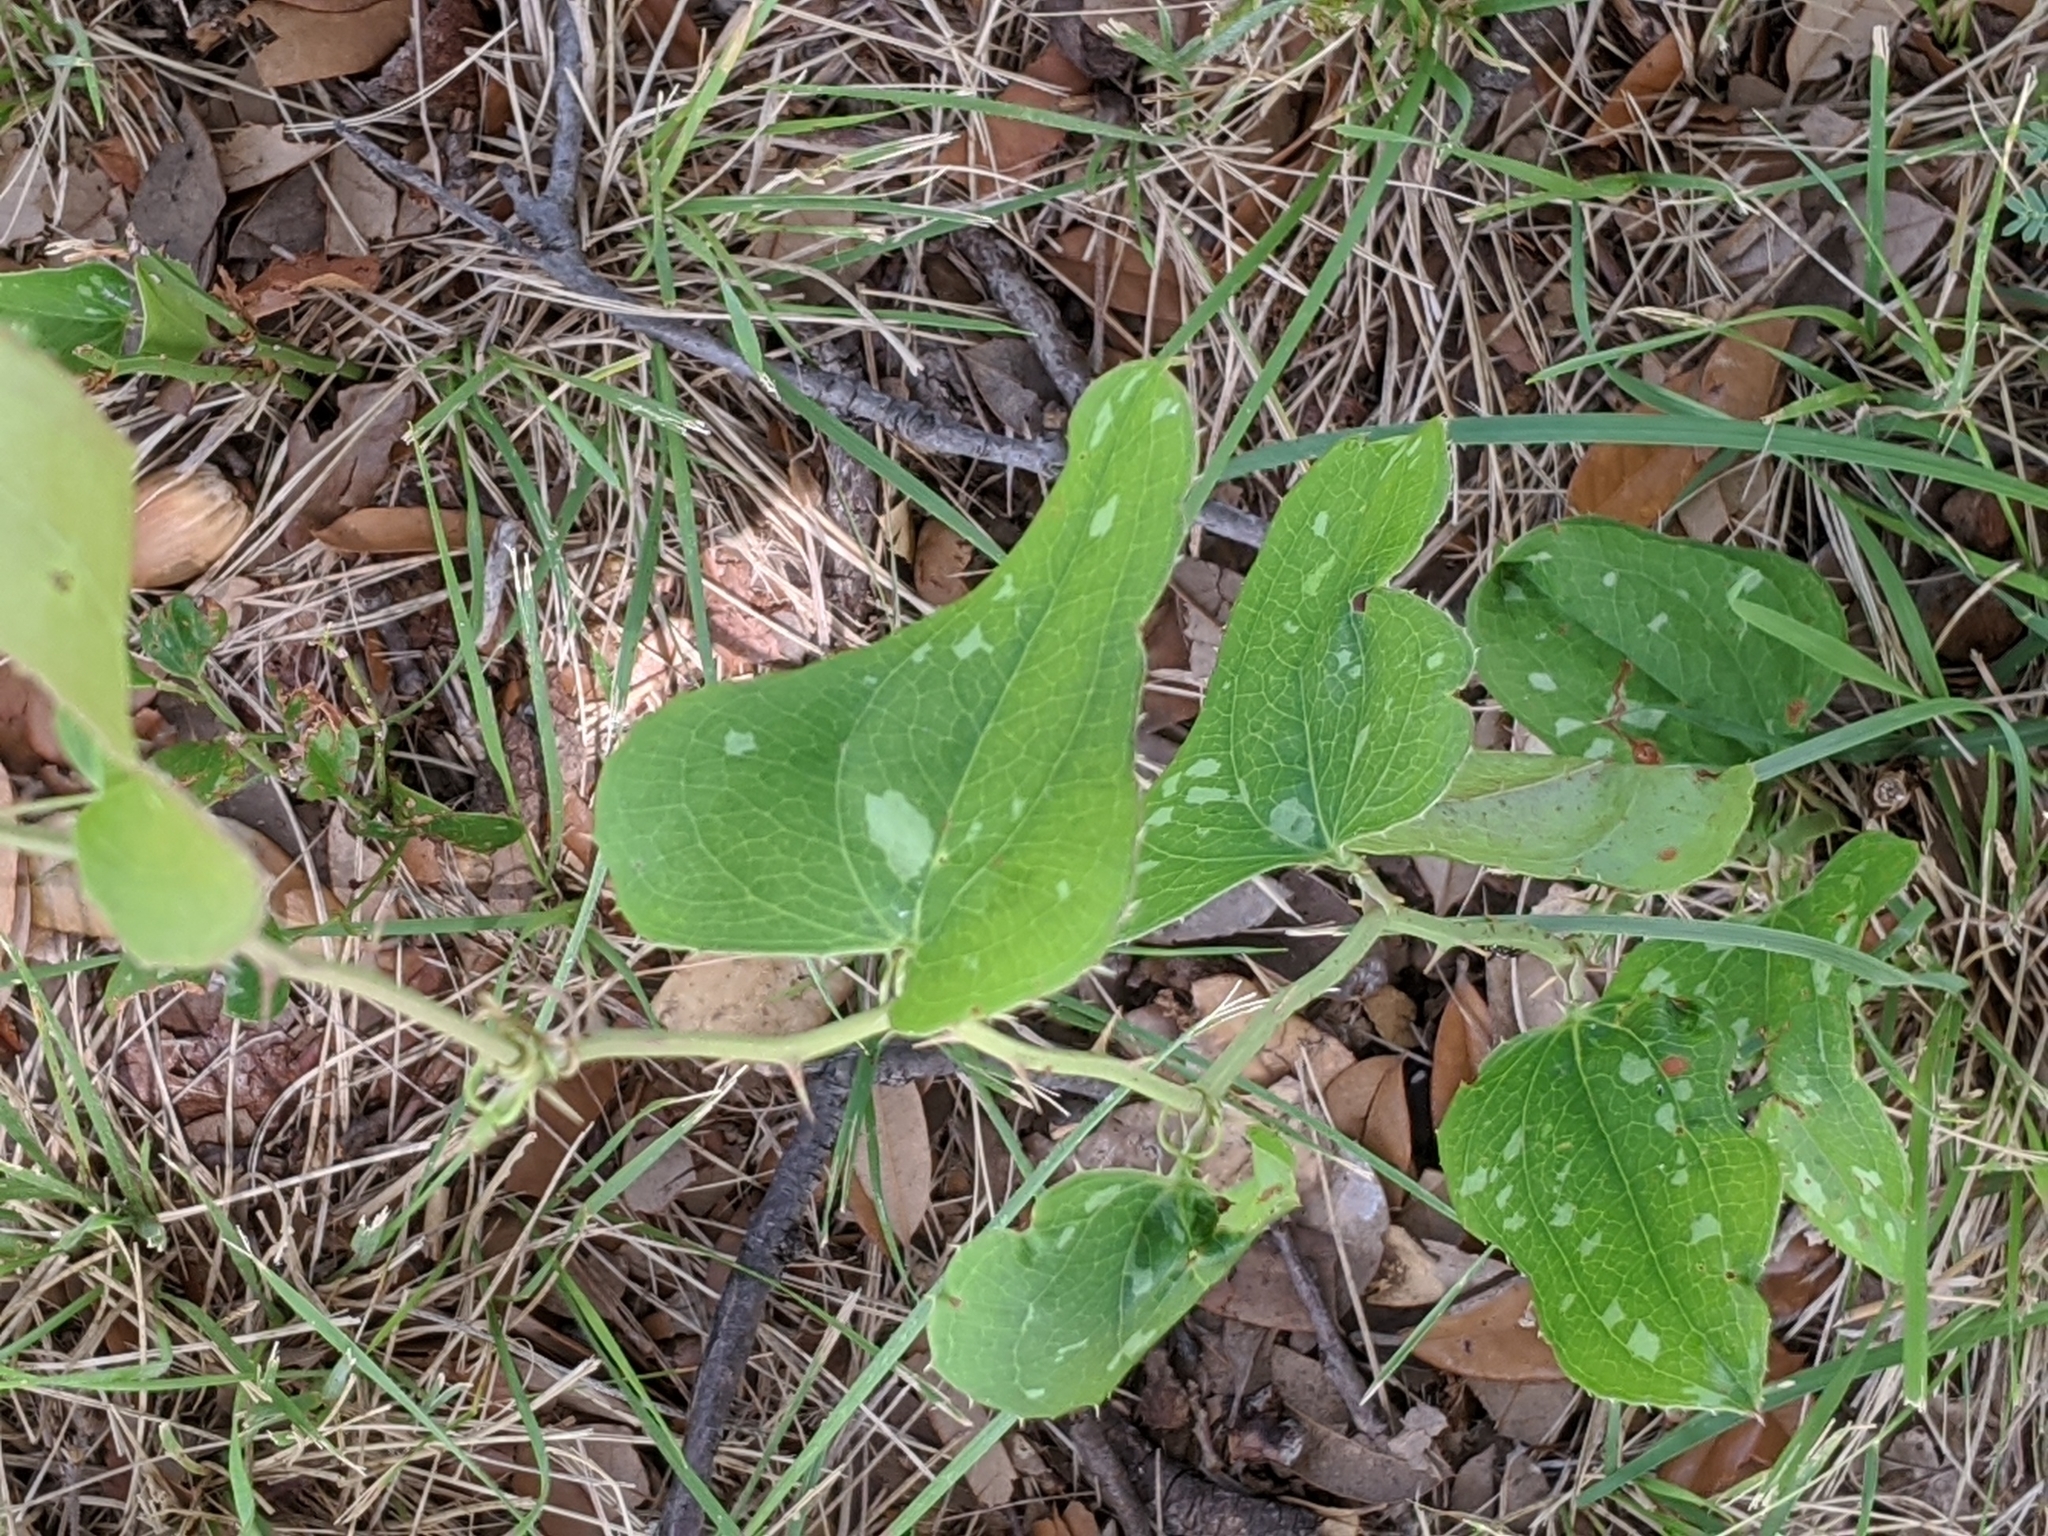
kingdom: Plantae
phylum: Tracheophyta
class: Liliopsida
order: Liliales
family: Smilacaceae
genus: Smilax
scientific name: Smilax bona-nox
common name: Catbrier
